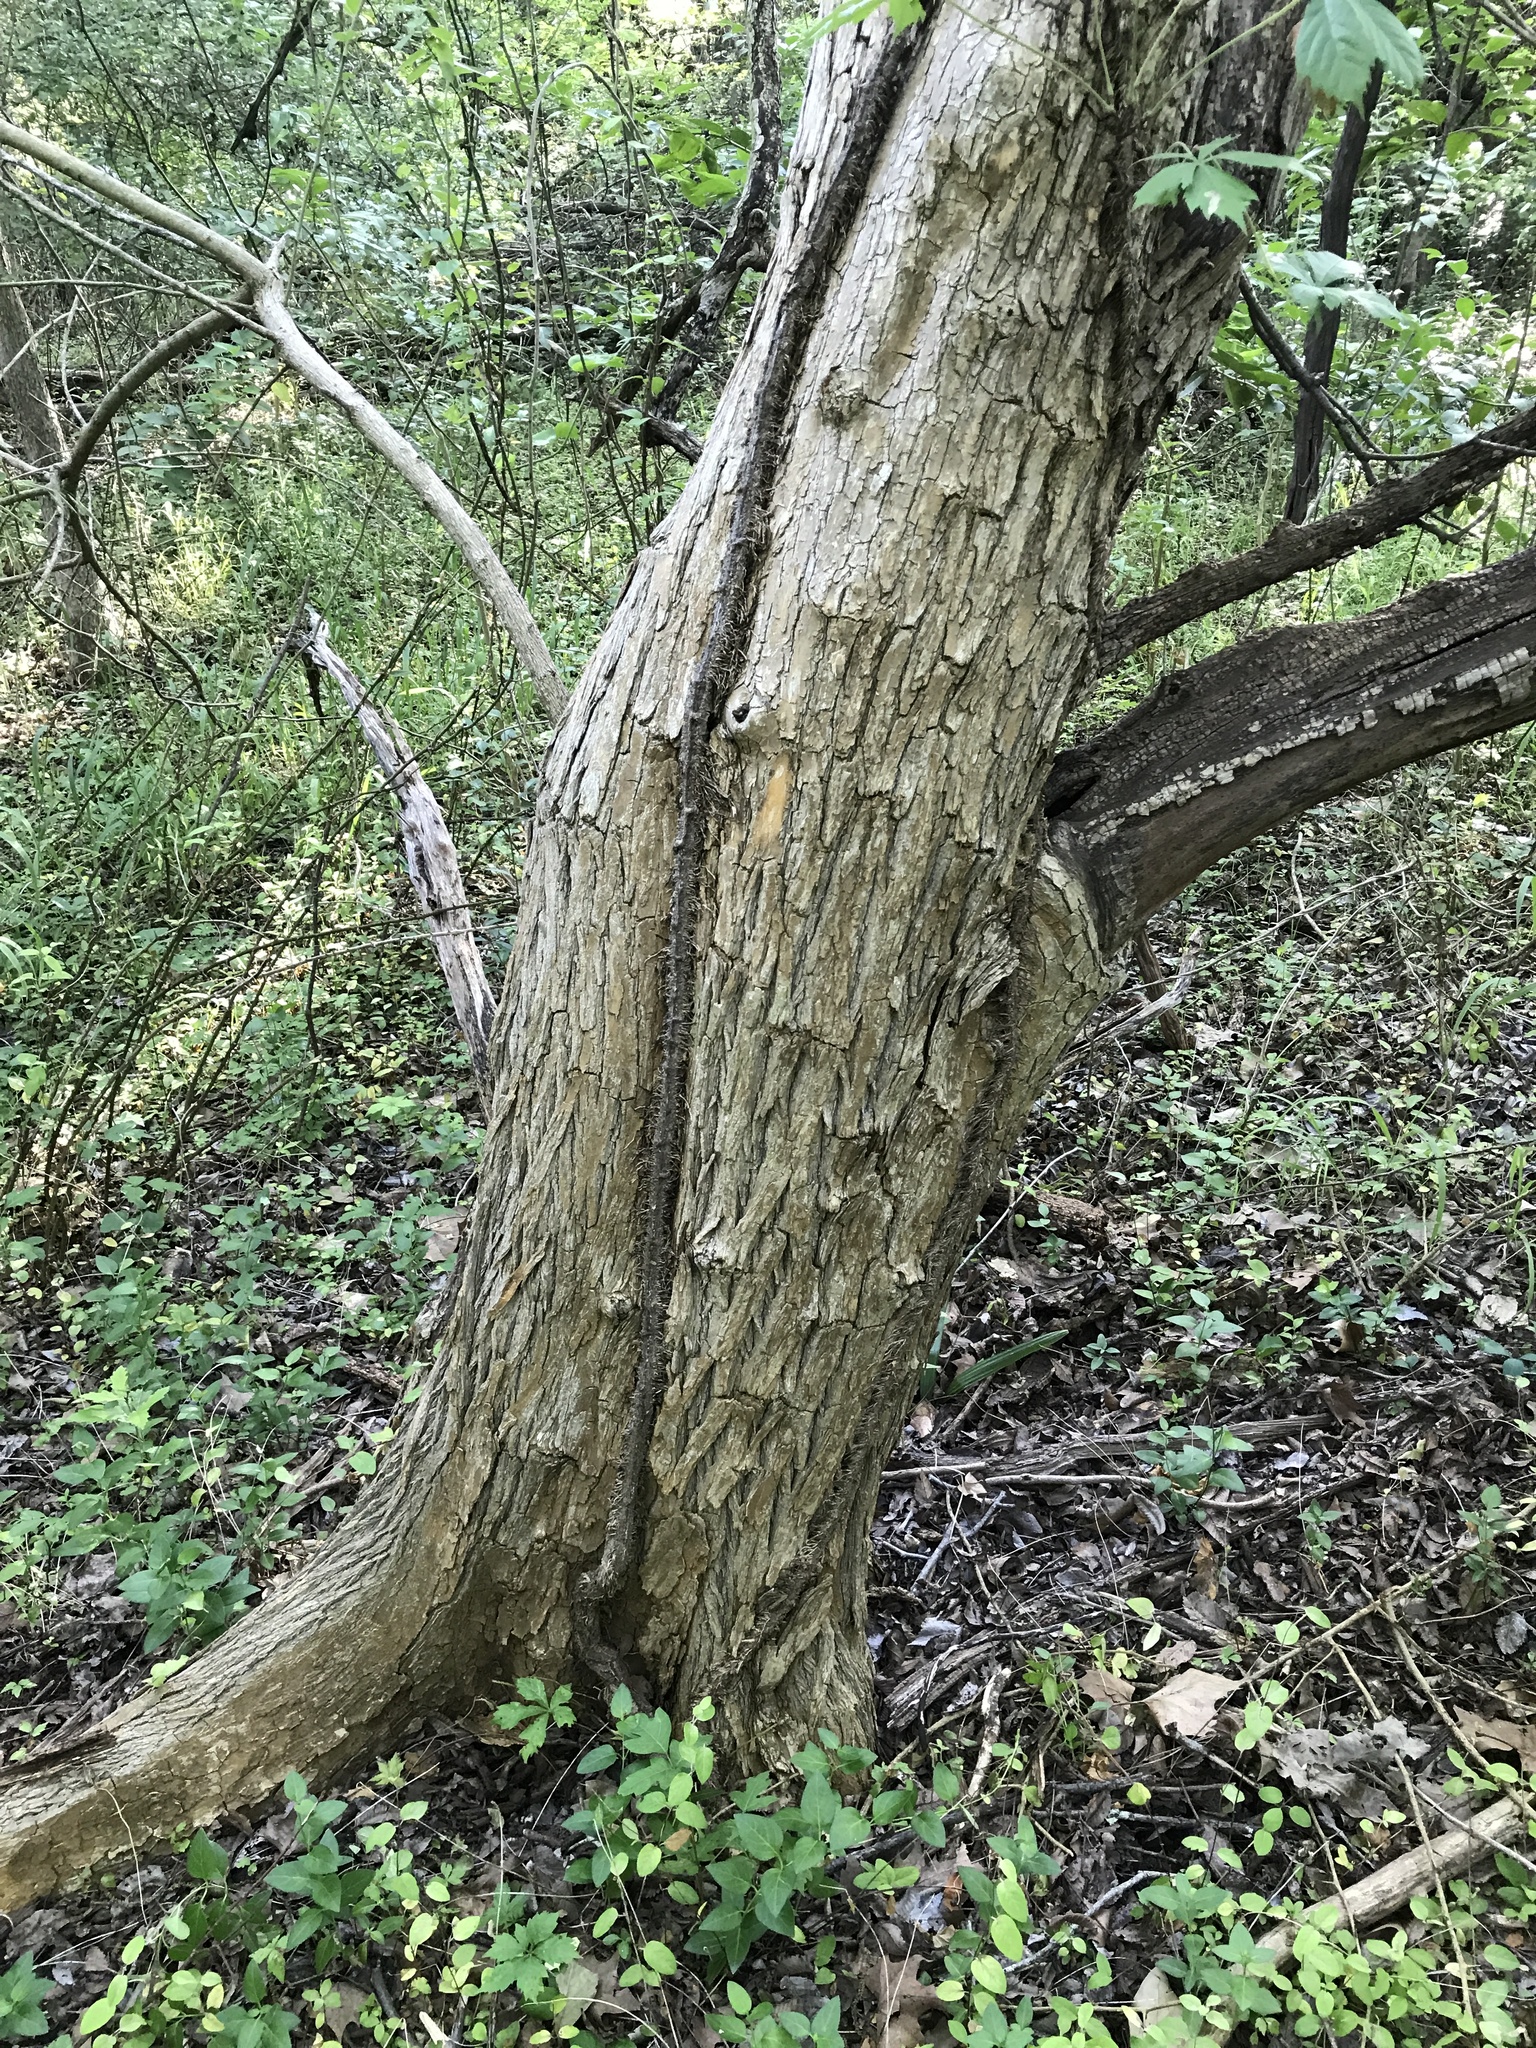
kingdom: Plantae
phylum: Tracheophyta
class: Magnoliopsida
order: Rosales
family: Moraceae
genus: Maclura
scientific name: Maclura pomifera
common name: Osage-orange
